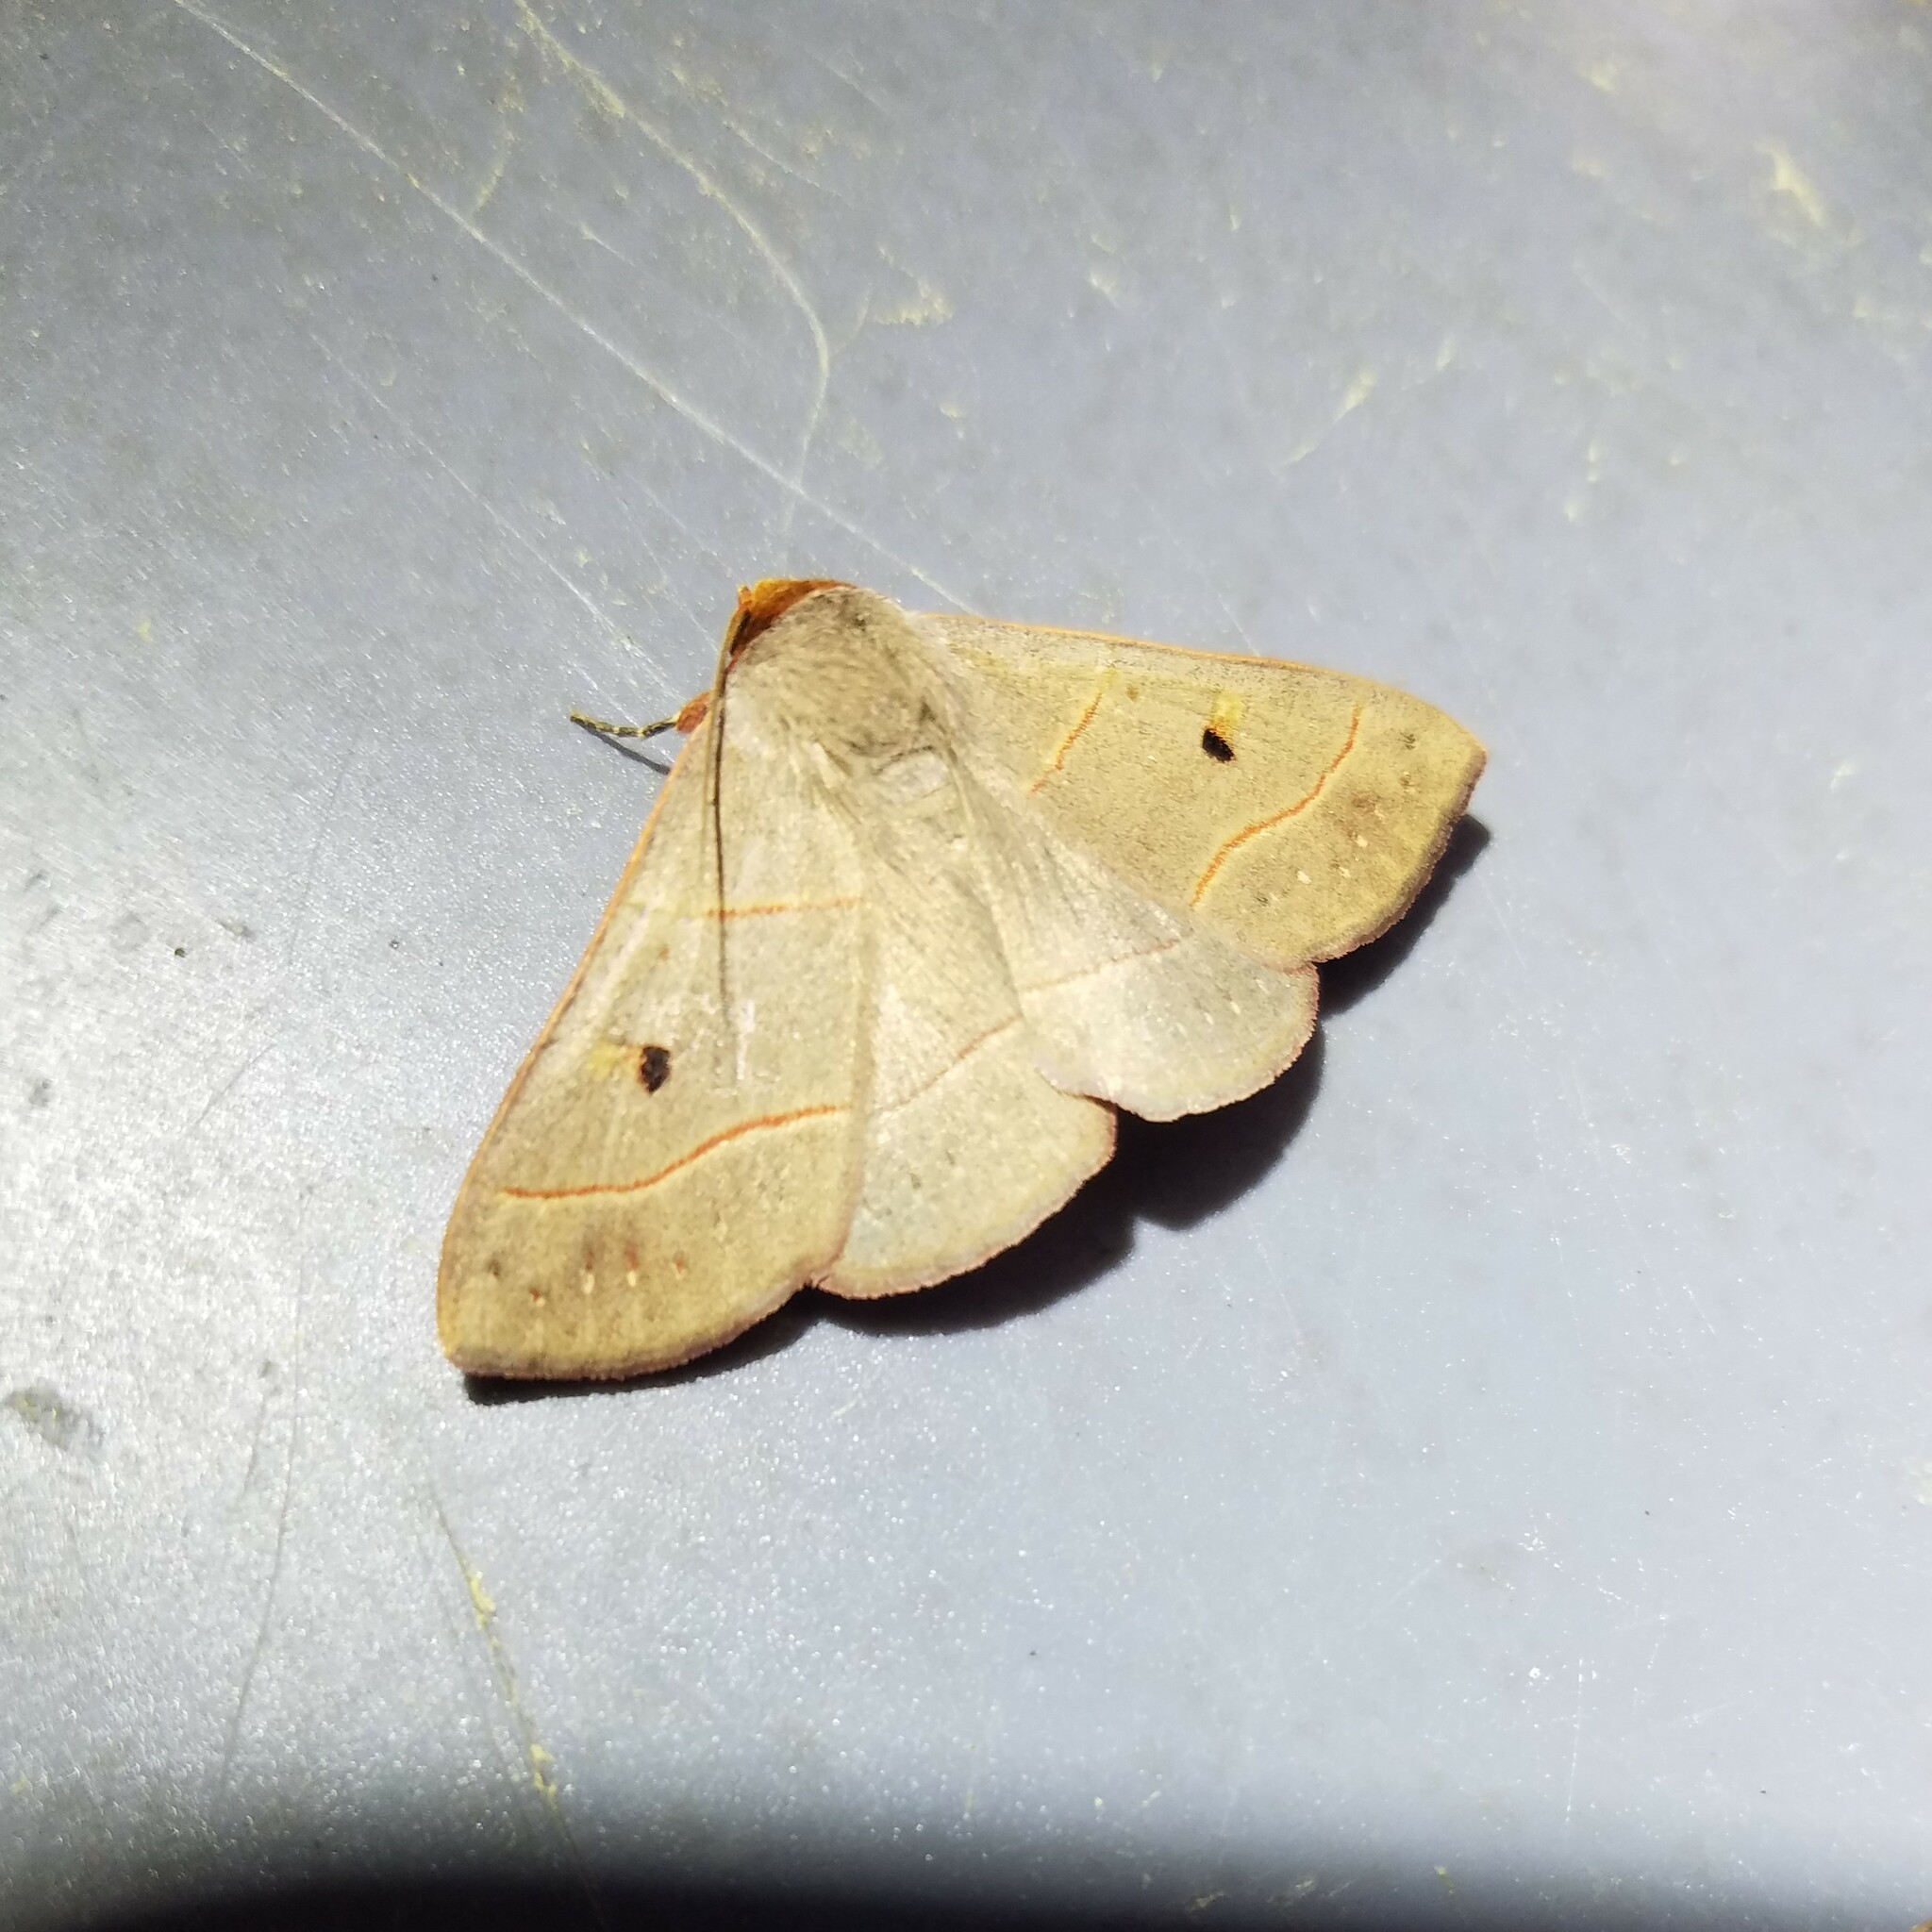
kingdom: Animalia
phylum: Arthropoda
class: Insecta
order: Lepidoptera
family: Erebidae
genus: Panopoda
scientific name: Panopoda rufimargo
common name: Red-lined panopoda moth
